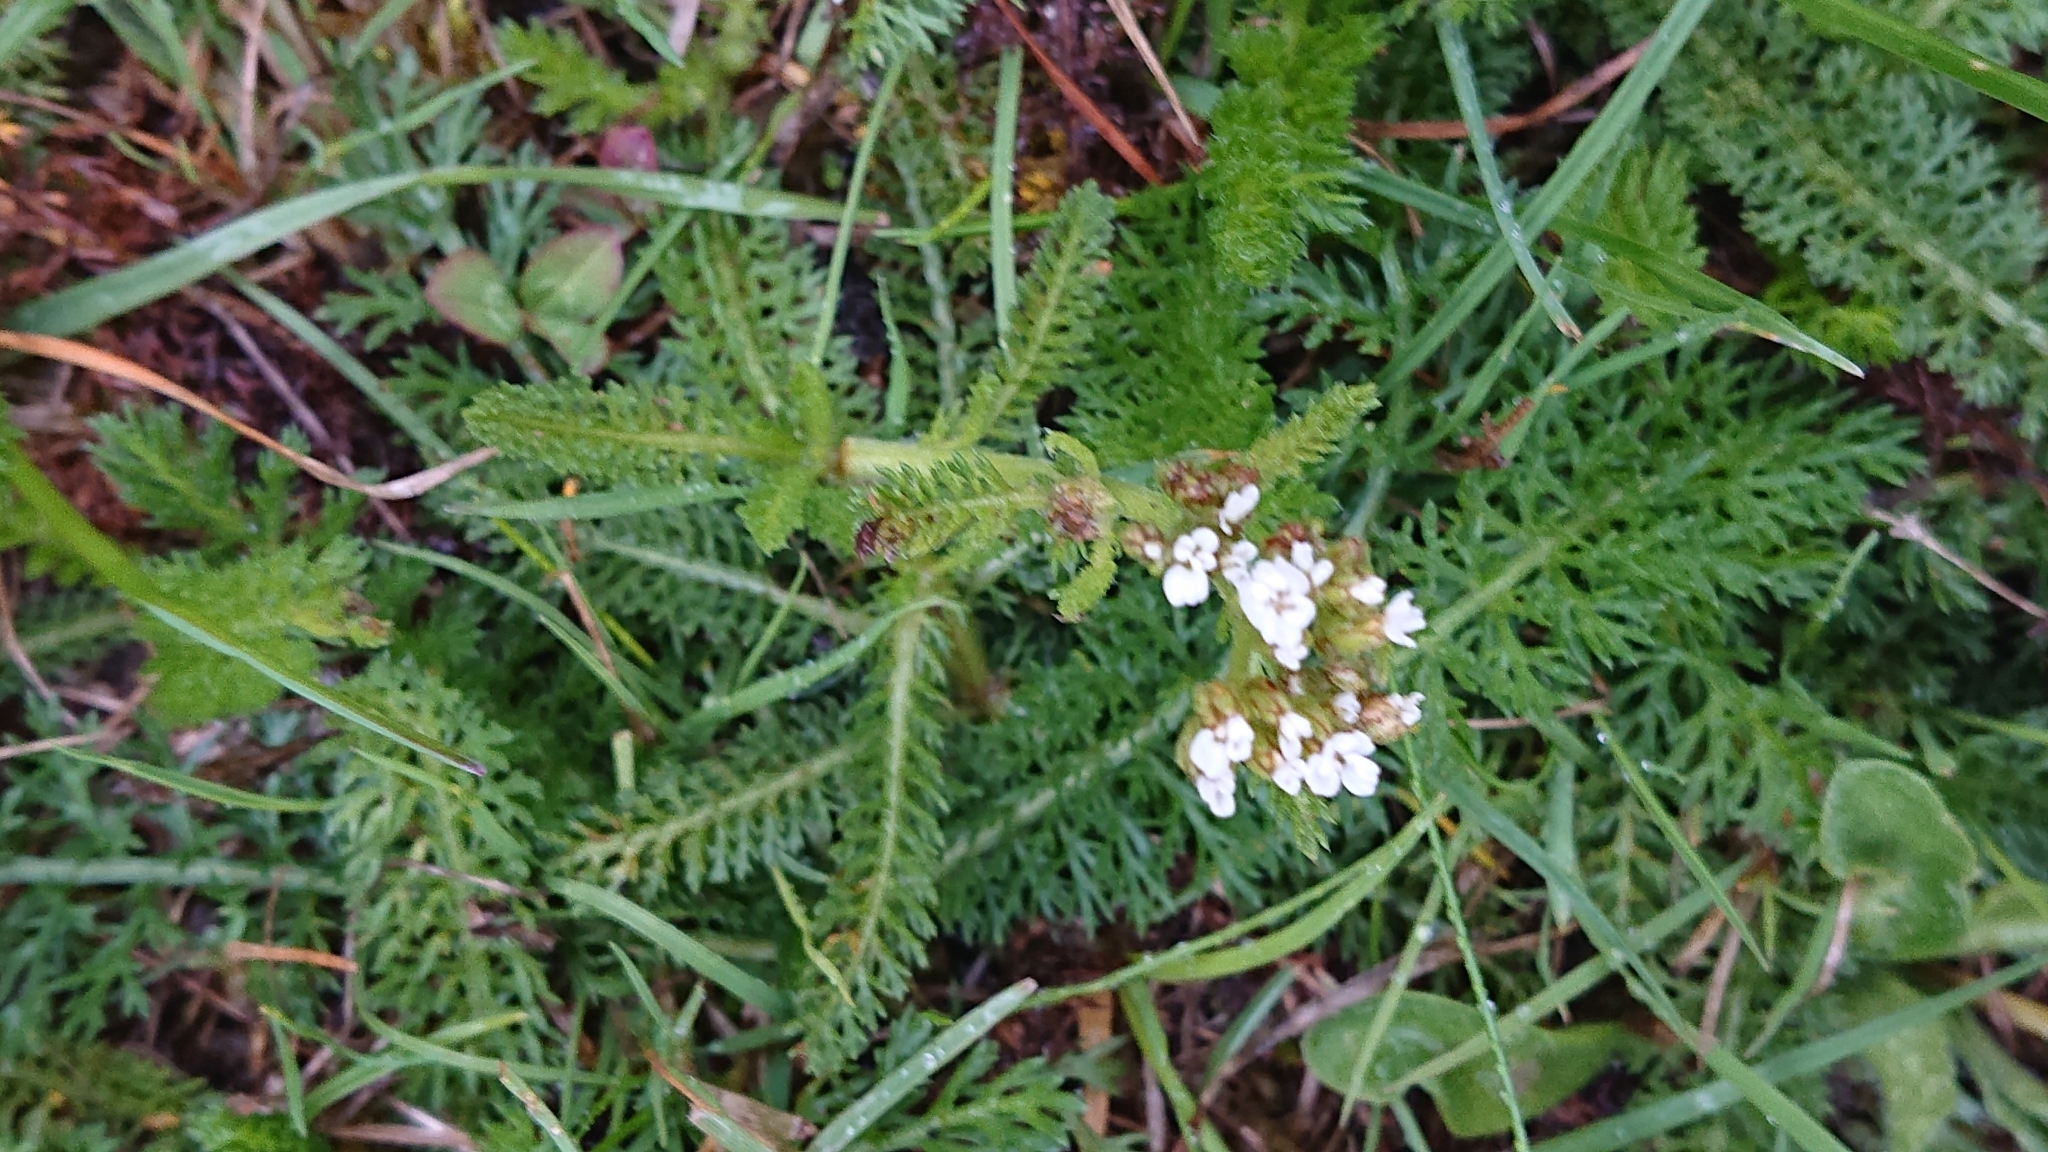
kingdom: Plantae
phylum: Tracheophyta
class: Magnoliopsida
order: Asterales
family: Asteraceae
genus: Achillea
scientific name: Achillea millefolium
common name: Yarrow
